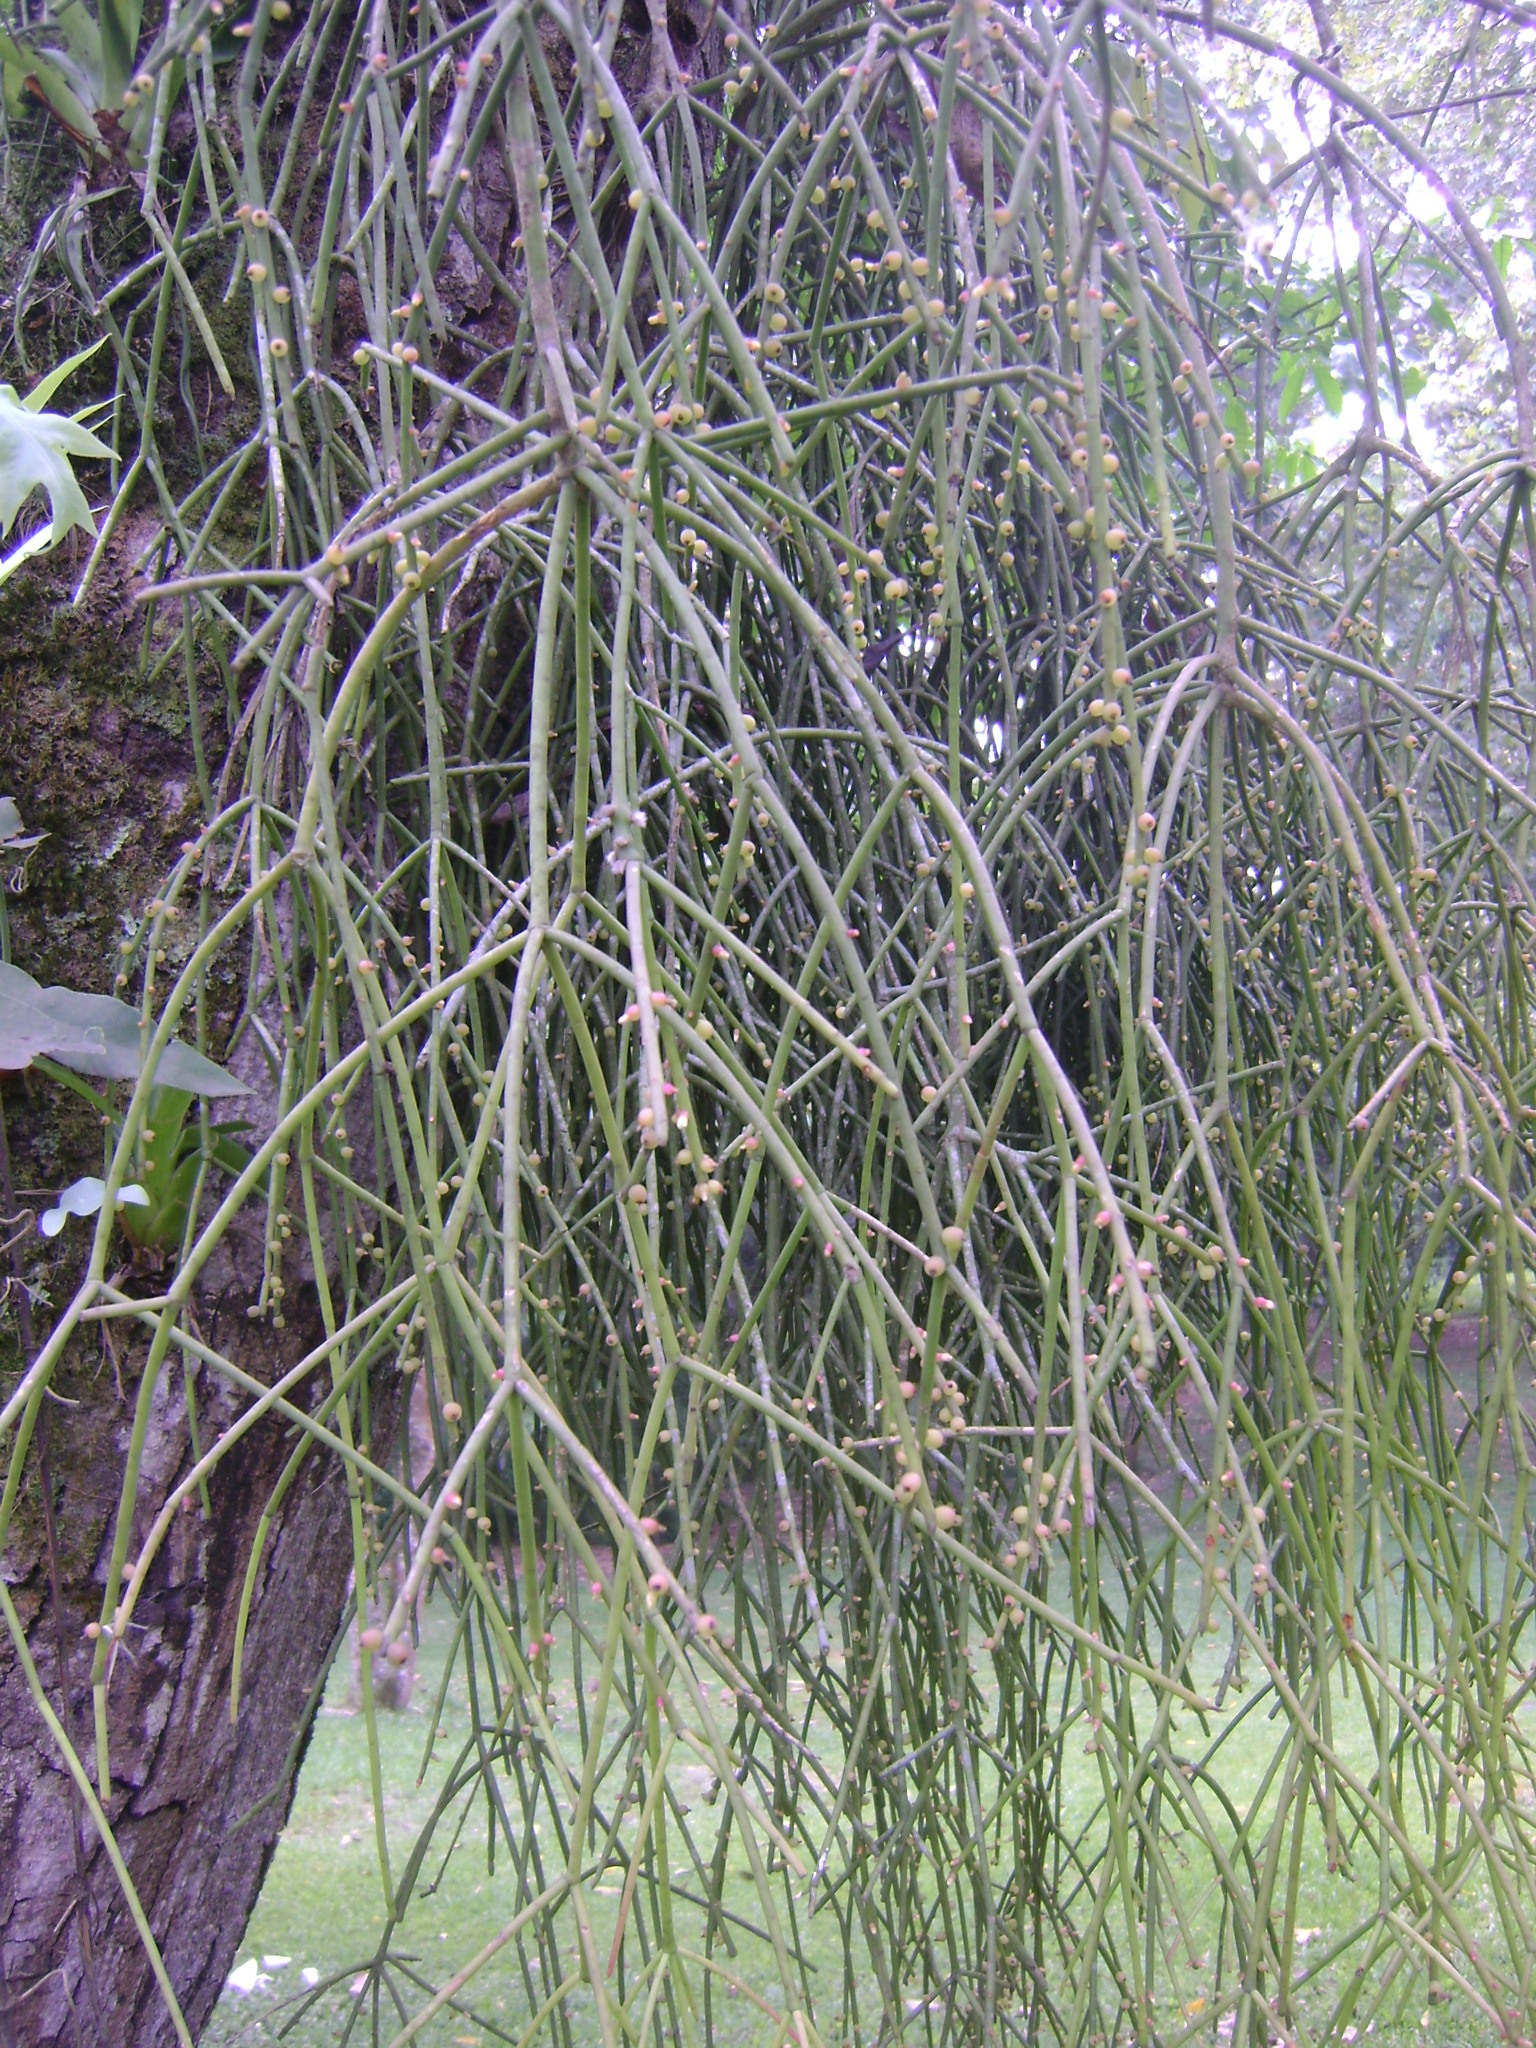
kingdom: Plantae
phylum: Tracheophyta
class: Magnoliopsida
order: Caryophyllales
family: Cactaceae
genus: Rhipsalis
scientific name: Rhipsalis baccifera
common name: Mistletoe cactus
